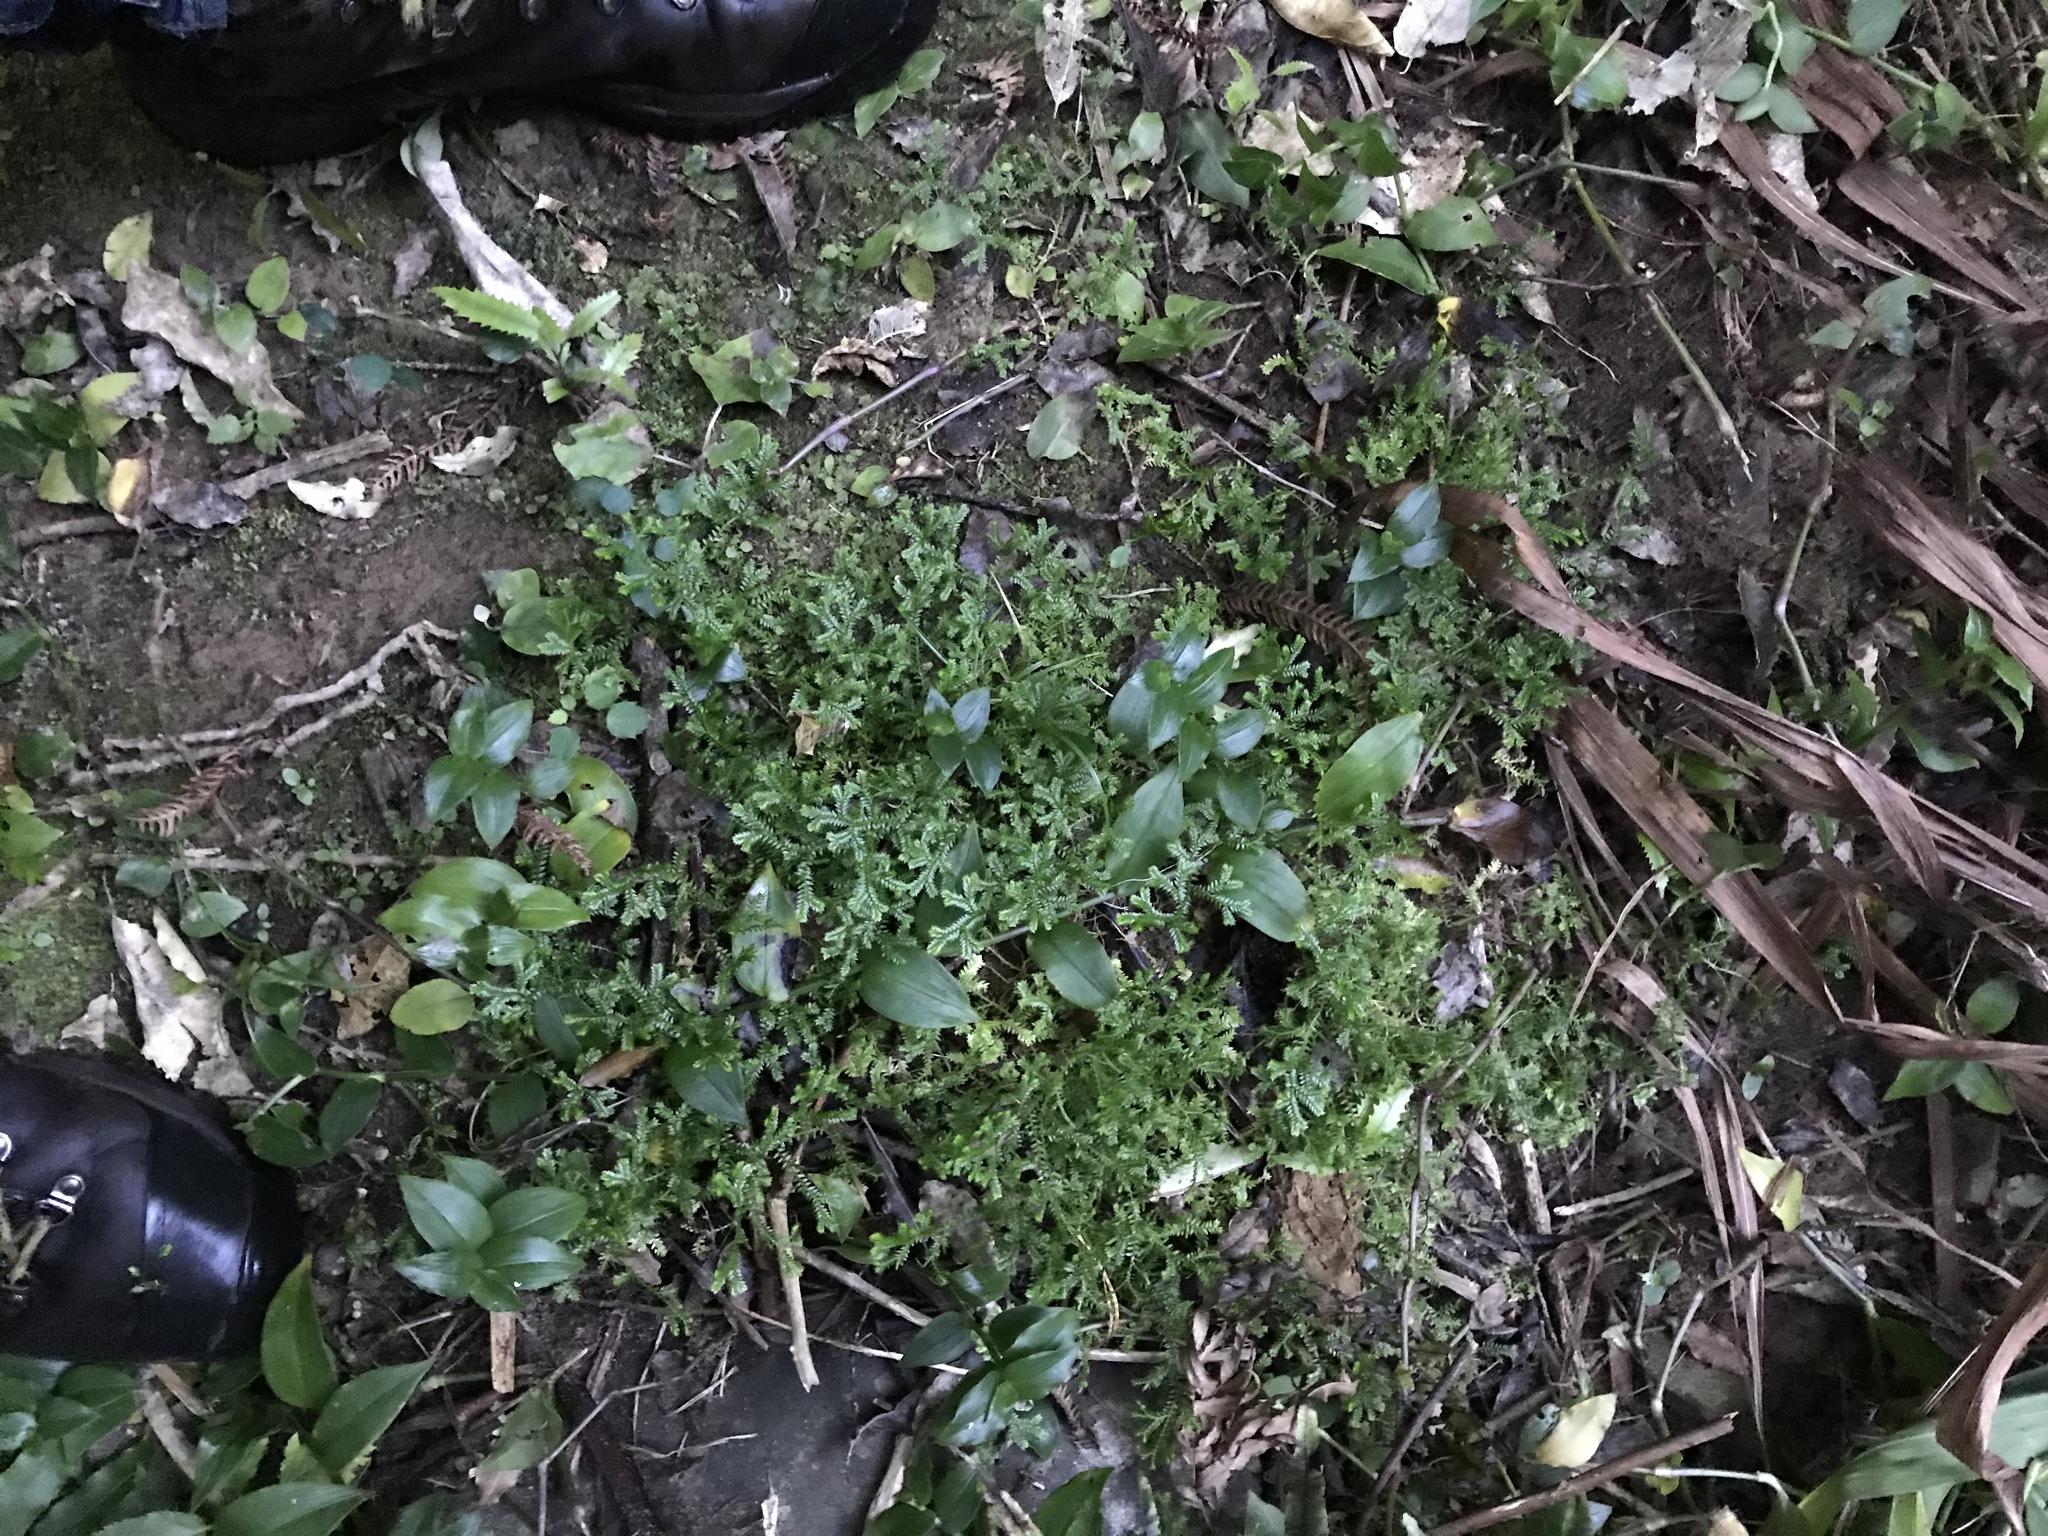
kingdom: Plantae
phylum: Tracheophyta
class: Lycopodiopsida
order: Selaginellales
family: Selaginellaceae
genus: Selaginella
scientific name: Selaginella kraussiana
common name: Krauss' spikemoss
